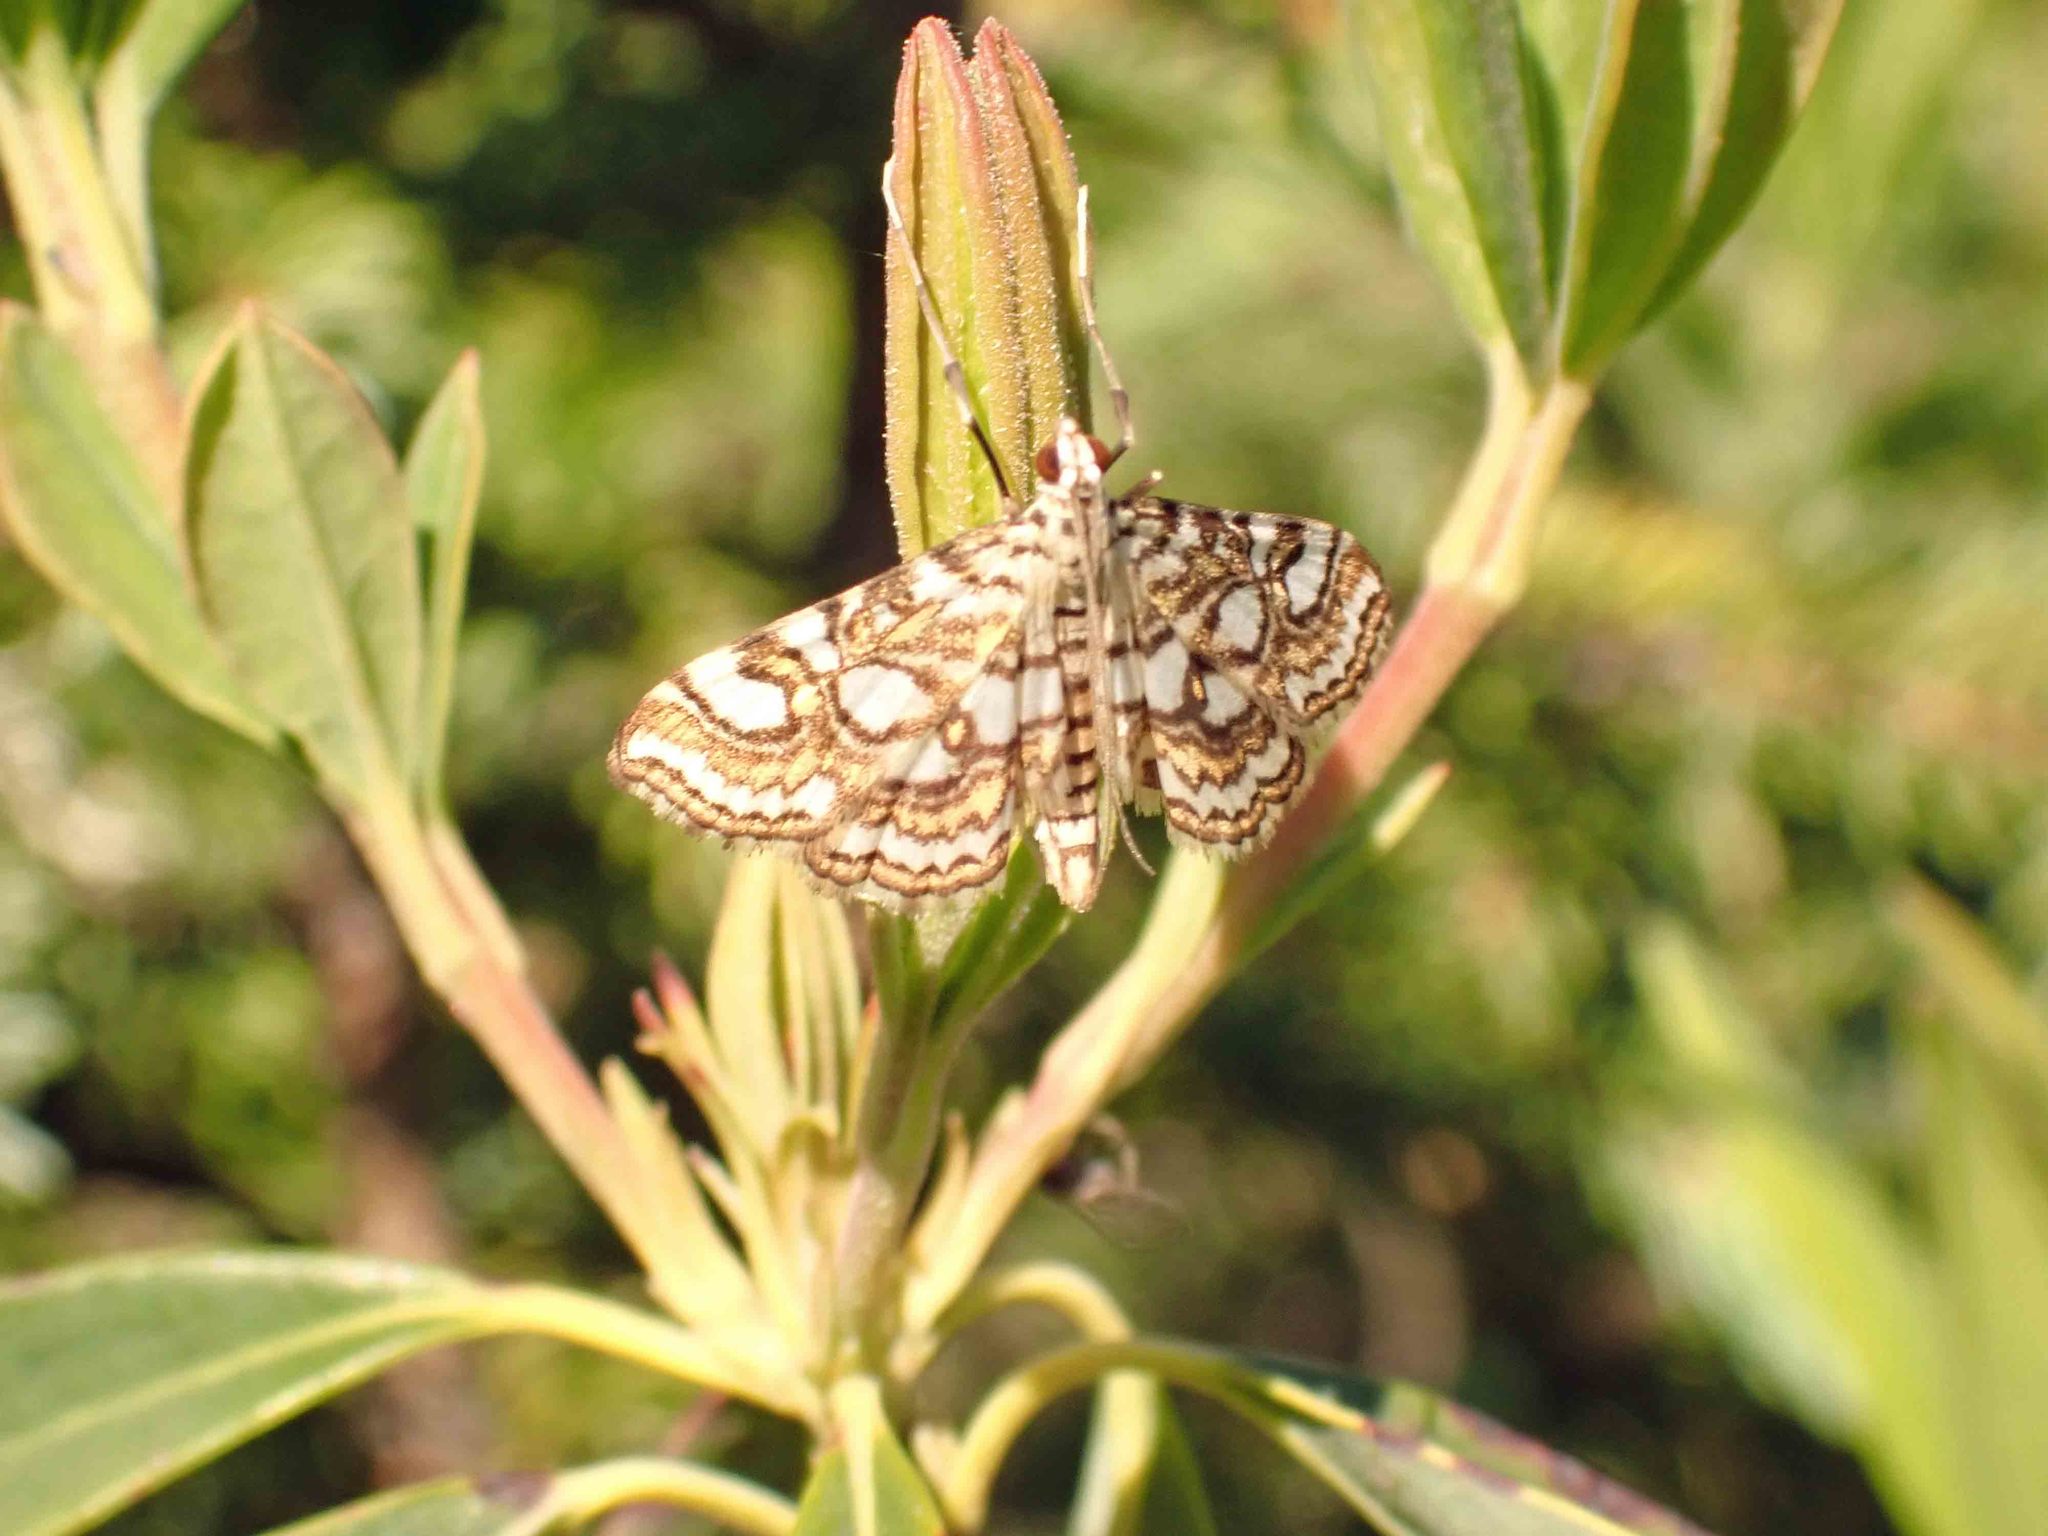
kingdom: Animalia
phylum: Arthropoda
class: Insecta
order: Lepidoptera
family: Crambidae
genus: Elophila
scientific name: Elophila ekthlipsis
